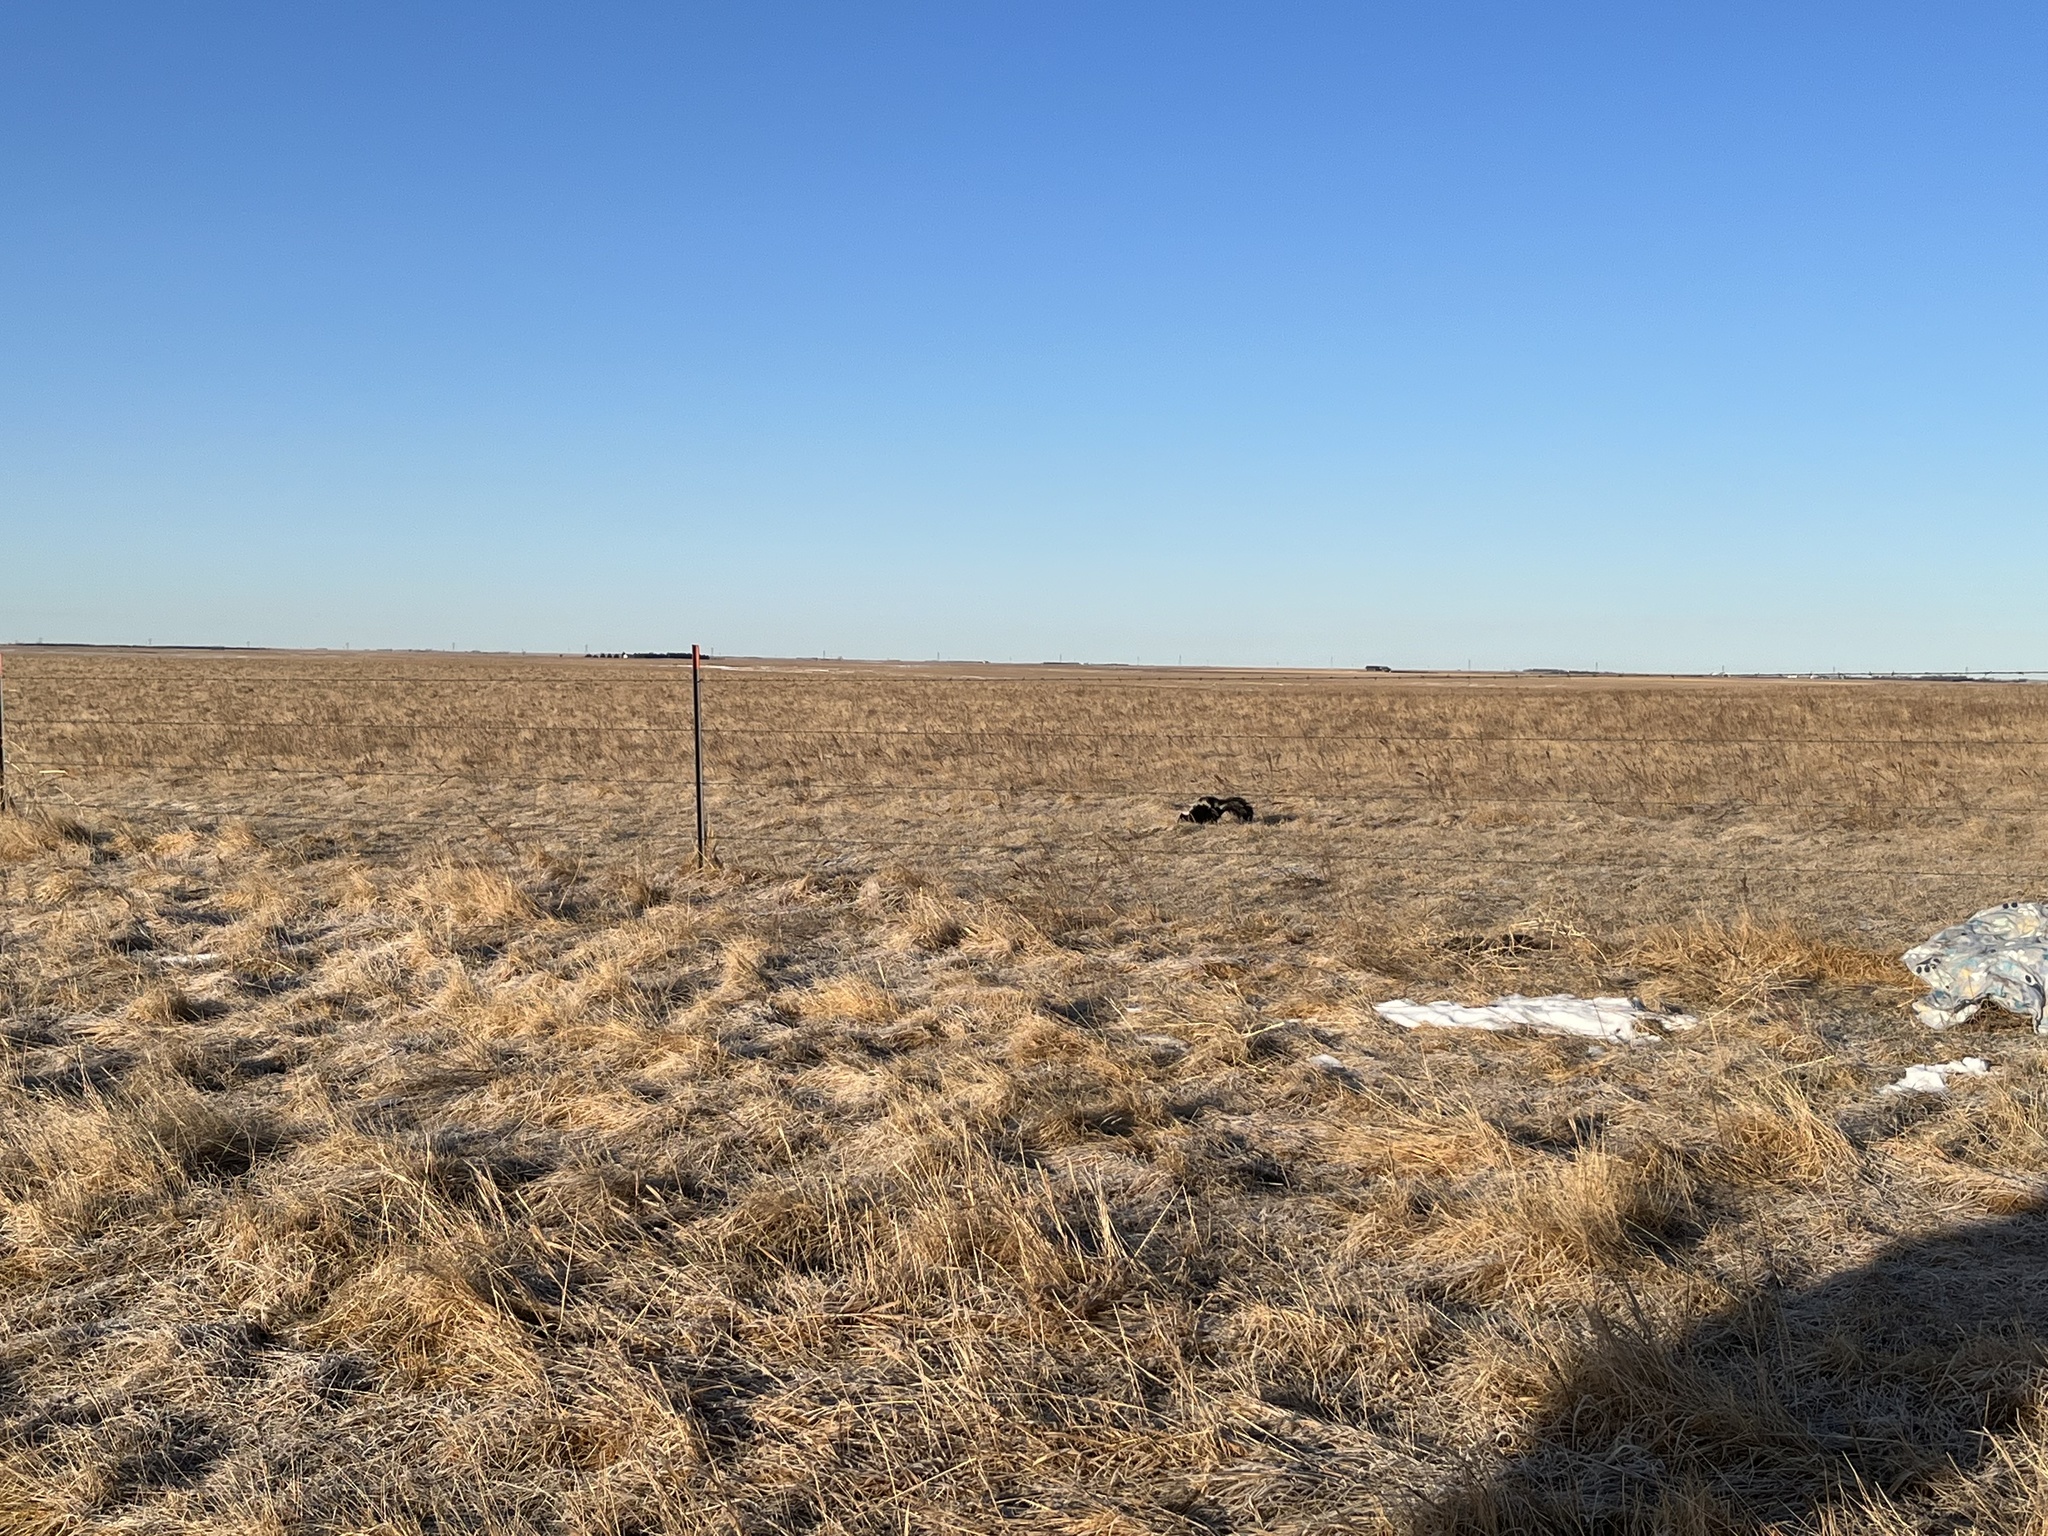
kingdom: Animalia
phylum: Chordata
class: Mammalia
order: Carnivora
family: Mephitidae
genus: Mephitis
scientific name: Mephitis mephitis
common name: Striped skunk
